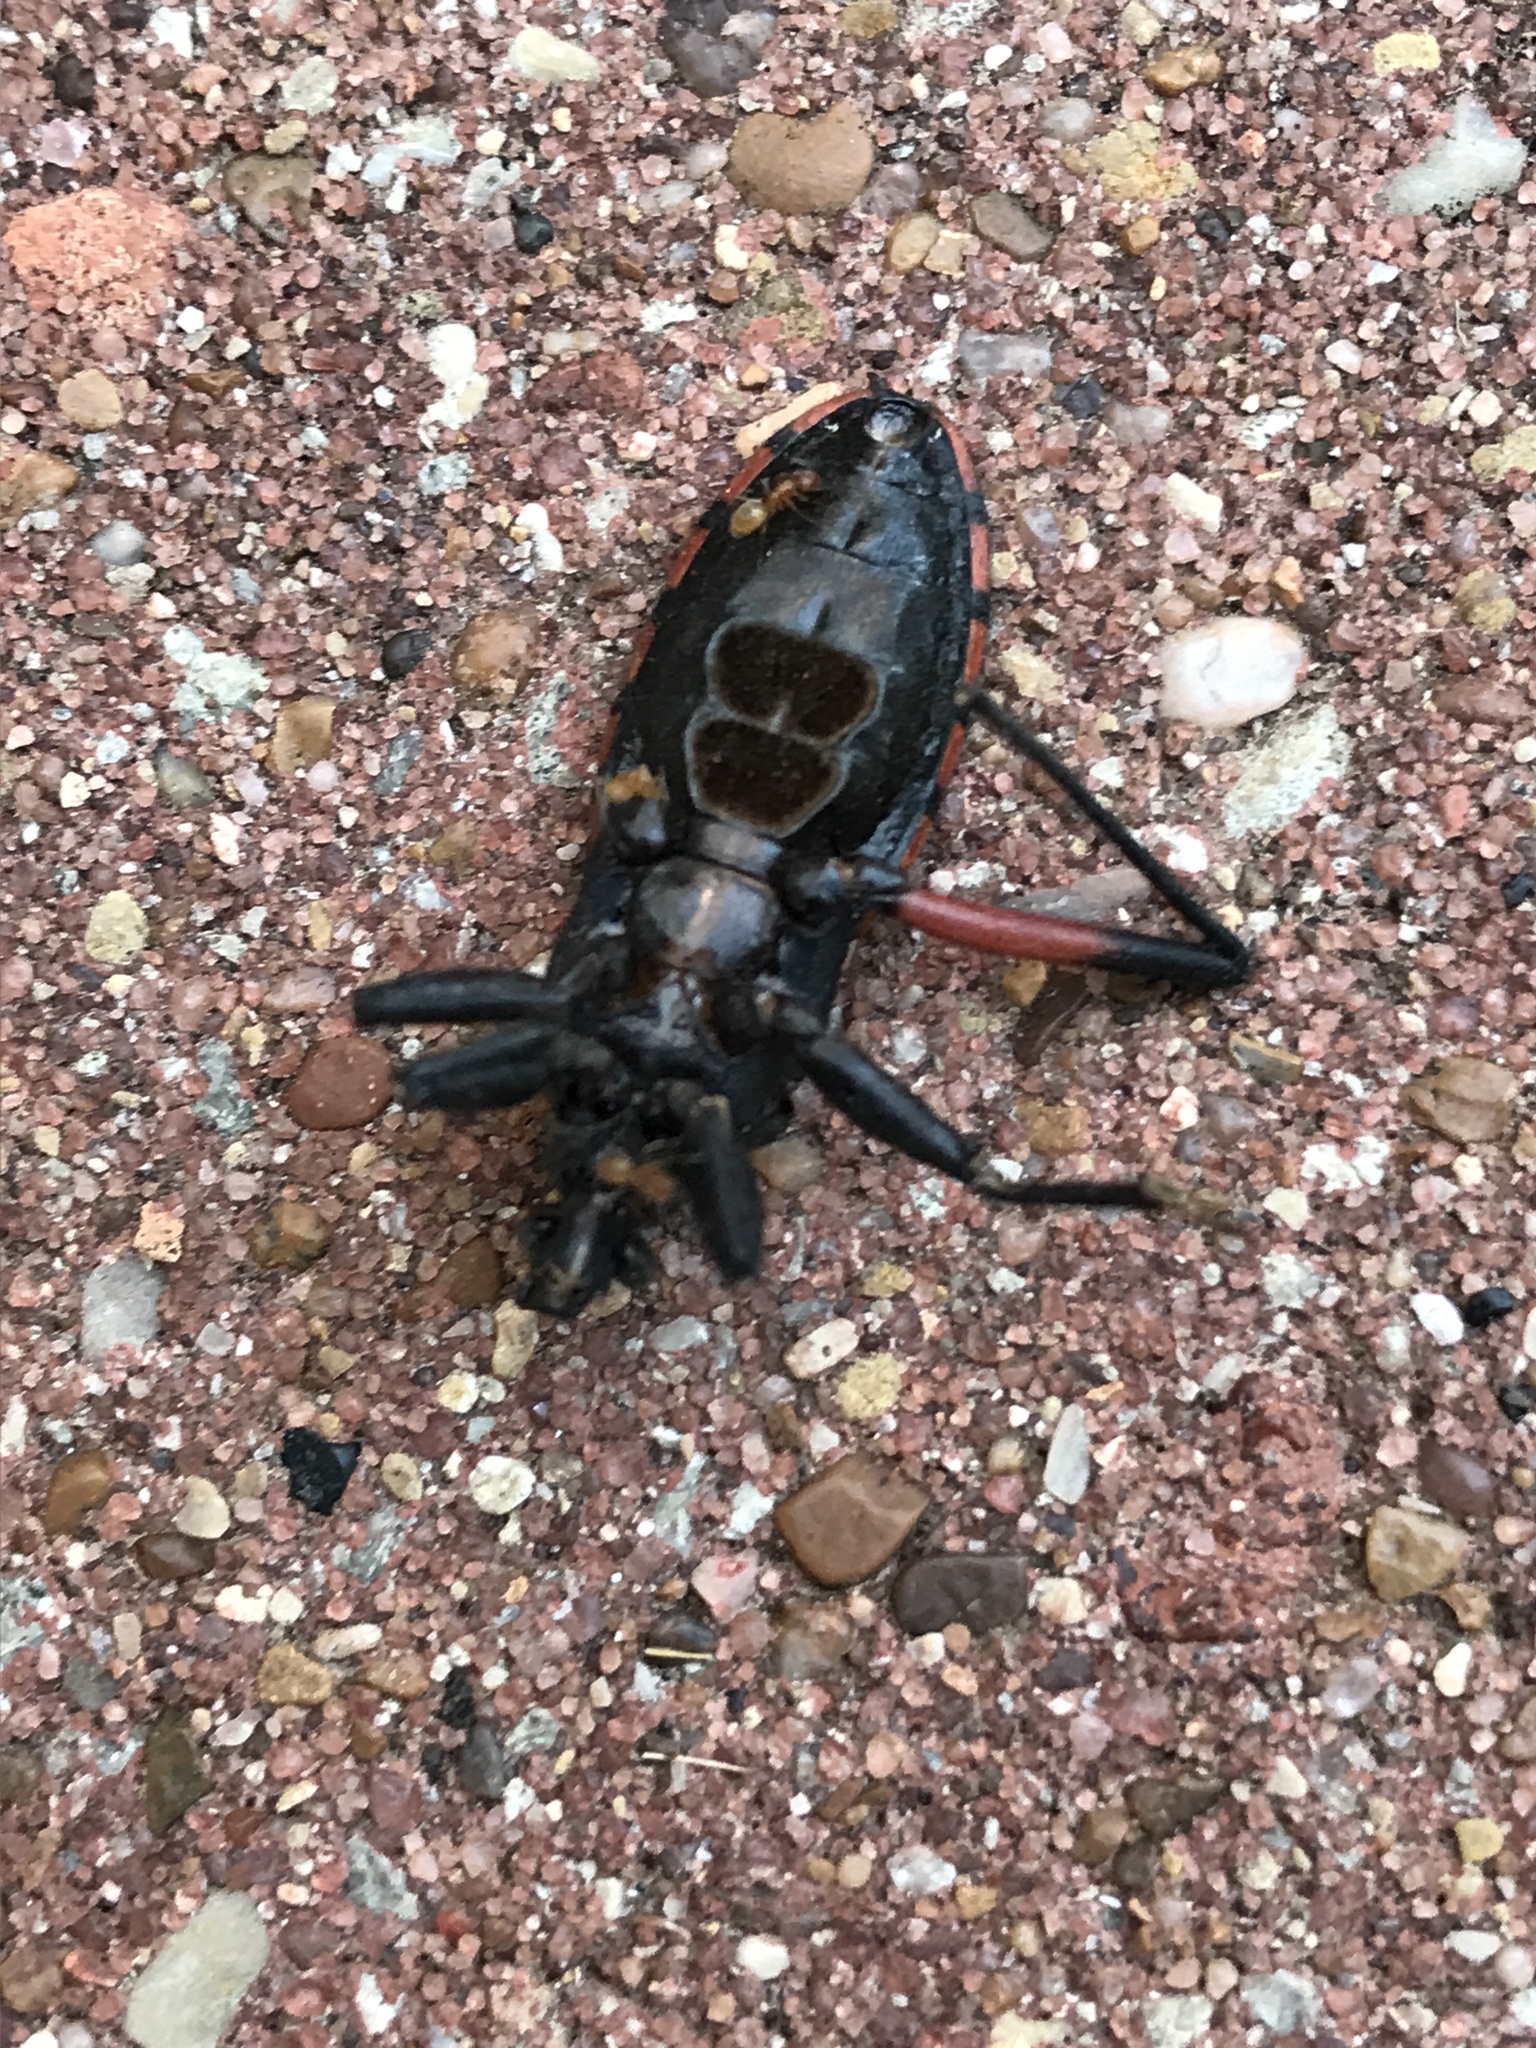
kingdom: Animalia
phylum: Arthropoda
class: Insecta
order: Hemiptera
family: Reduviidae
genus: Microtomus
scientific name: Microtomus purcis
